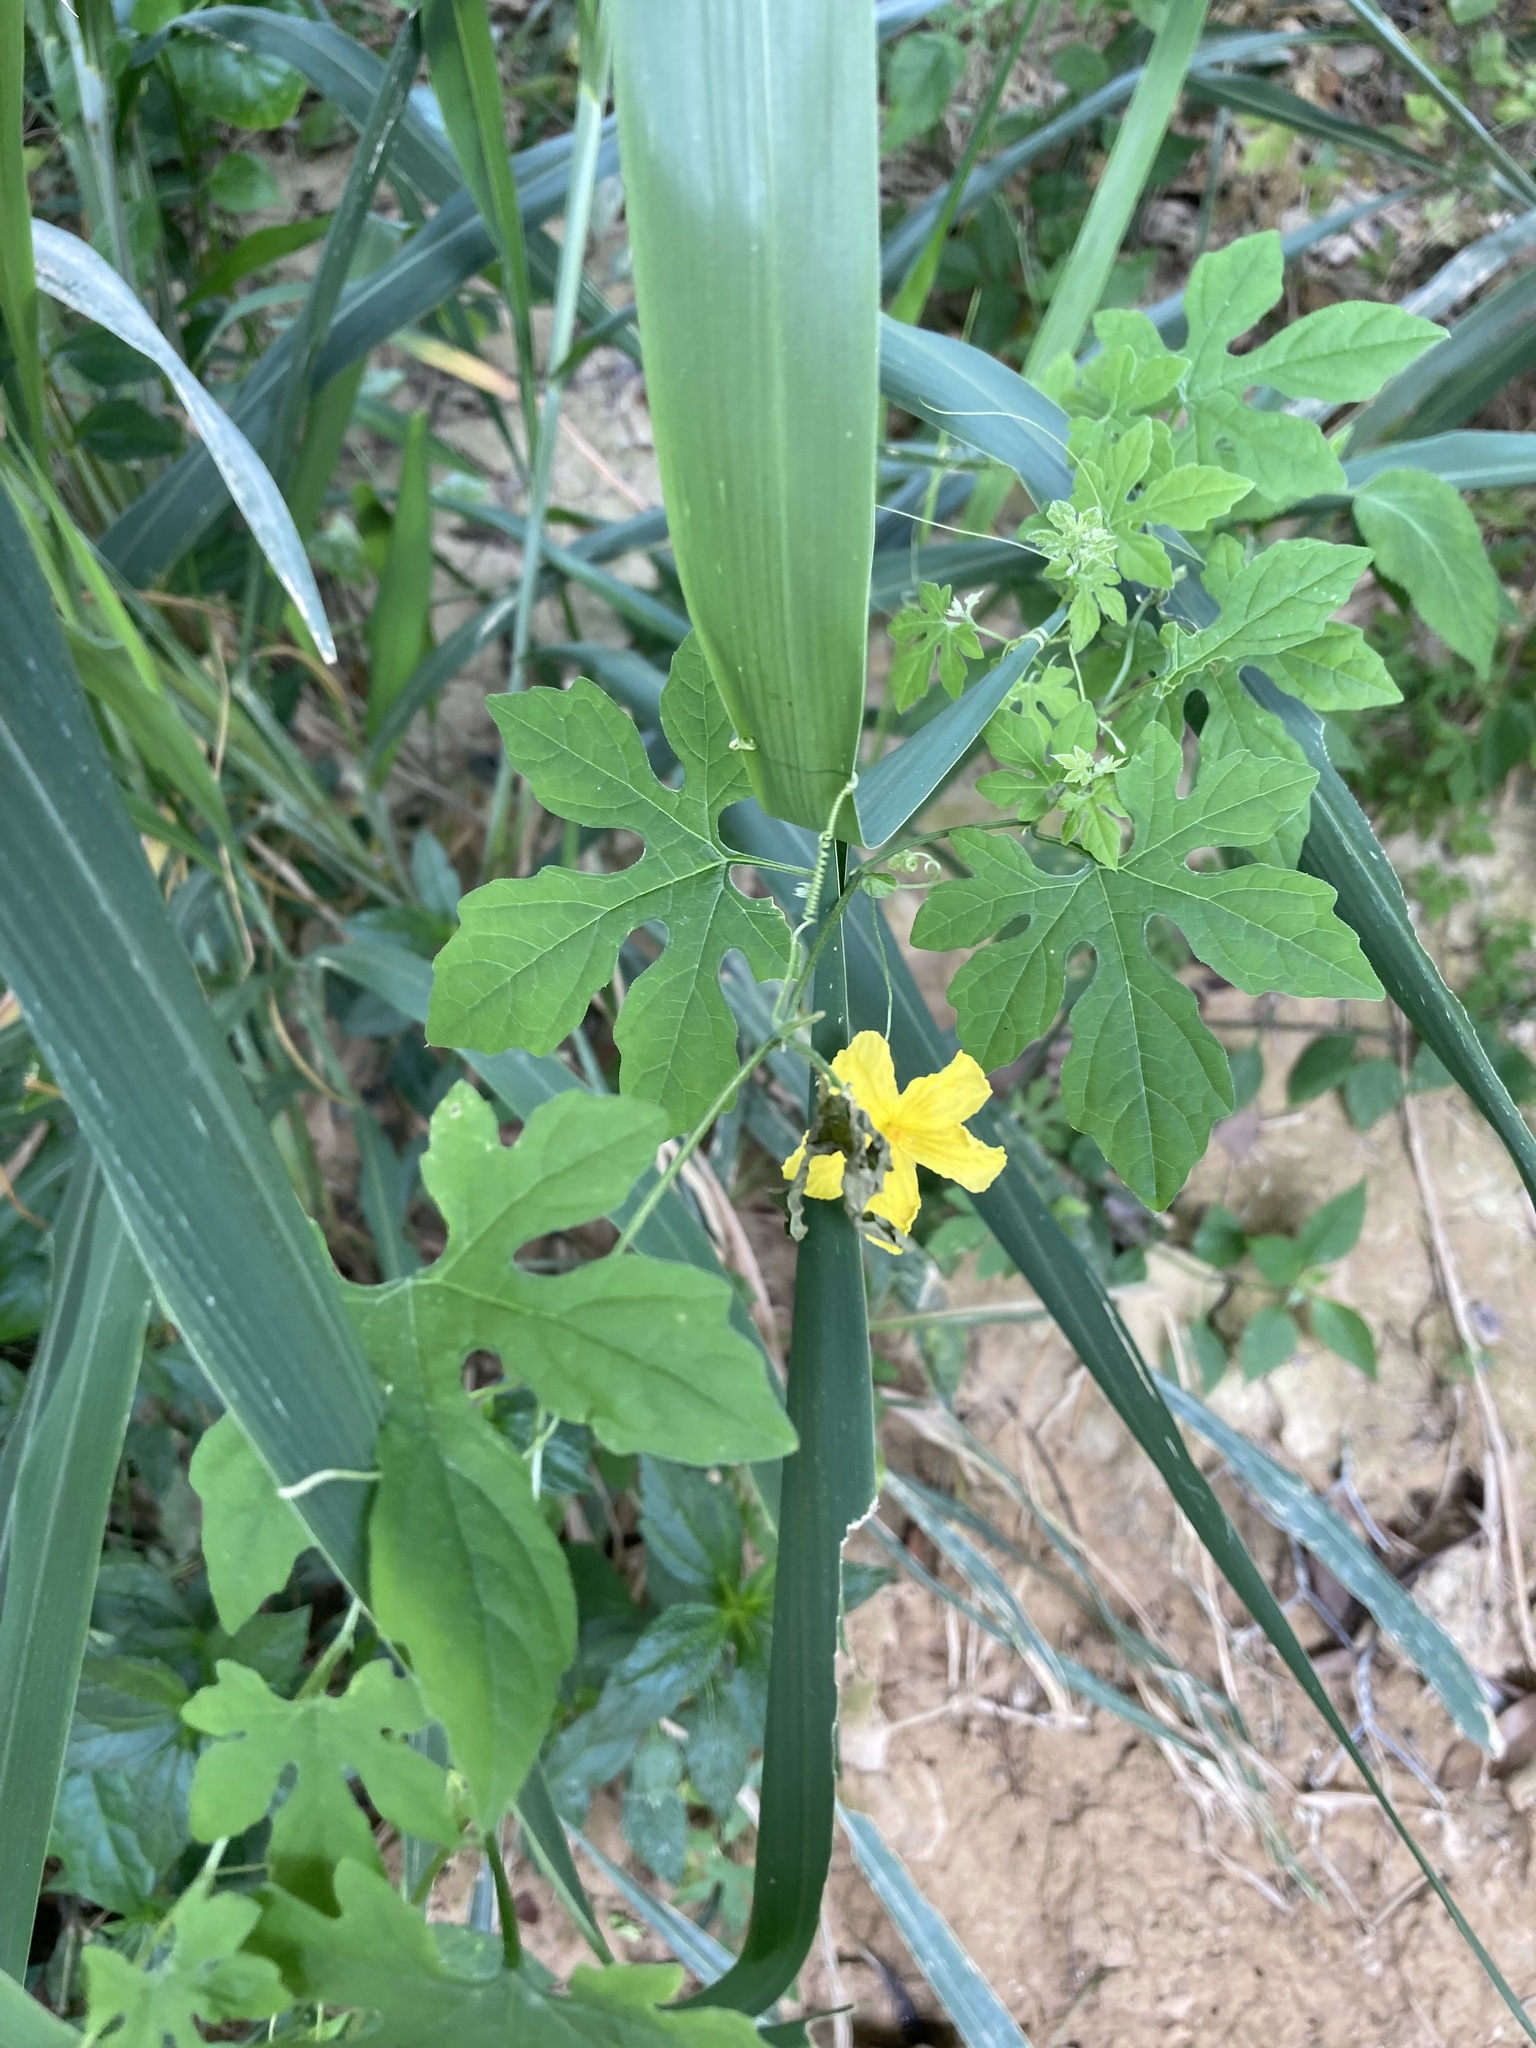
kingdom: Plantae
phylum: Tracheophyta
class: Magnoliopsida
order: Cucurbitales
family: Cucurbitaceae
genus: Momordica
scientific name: Momordica charantia
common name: Balsampear
